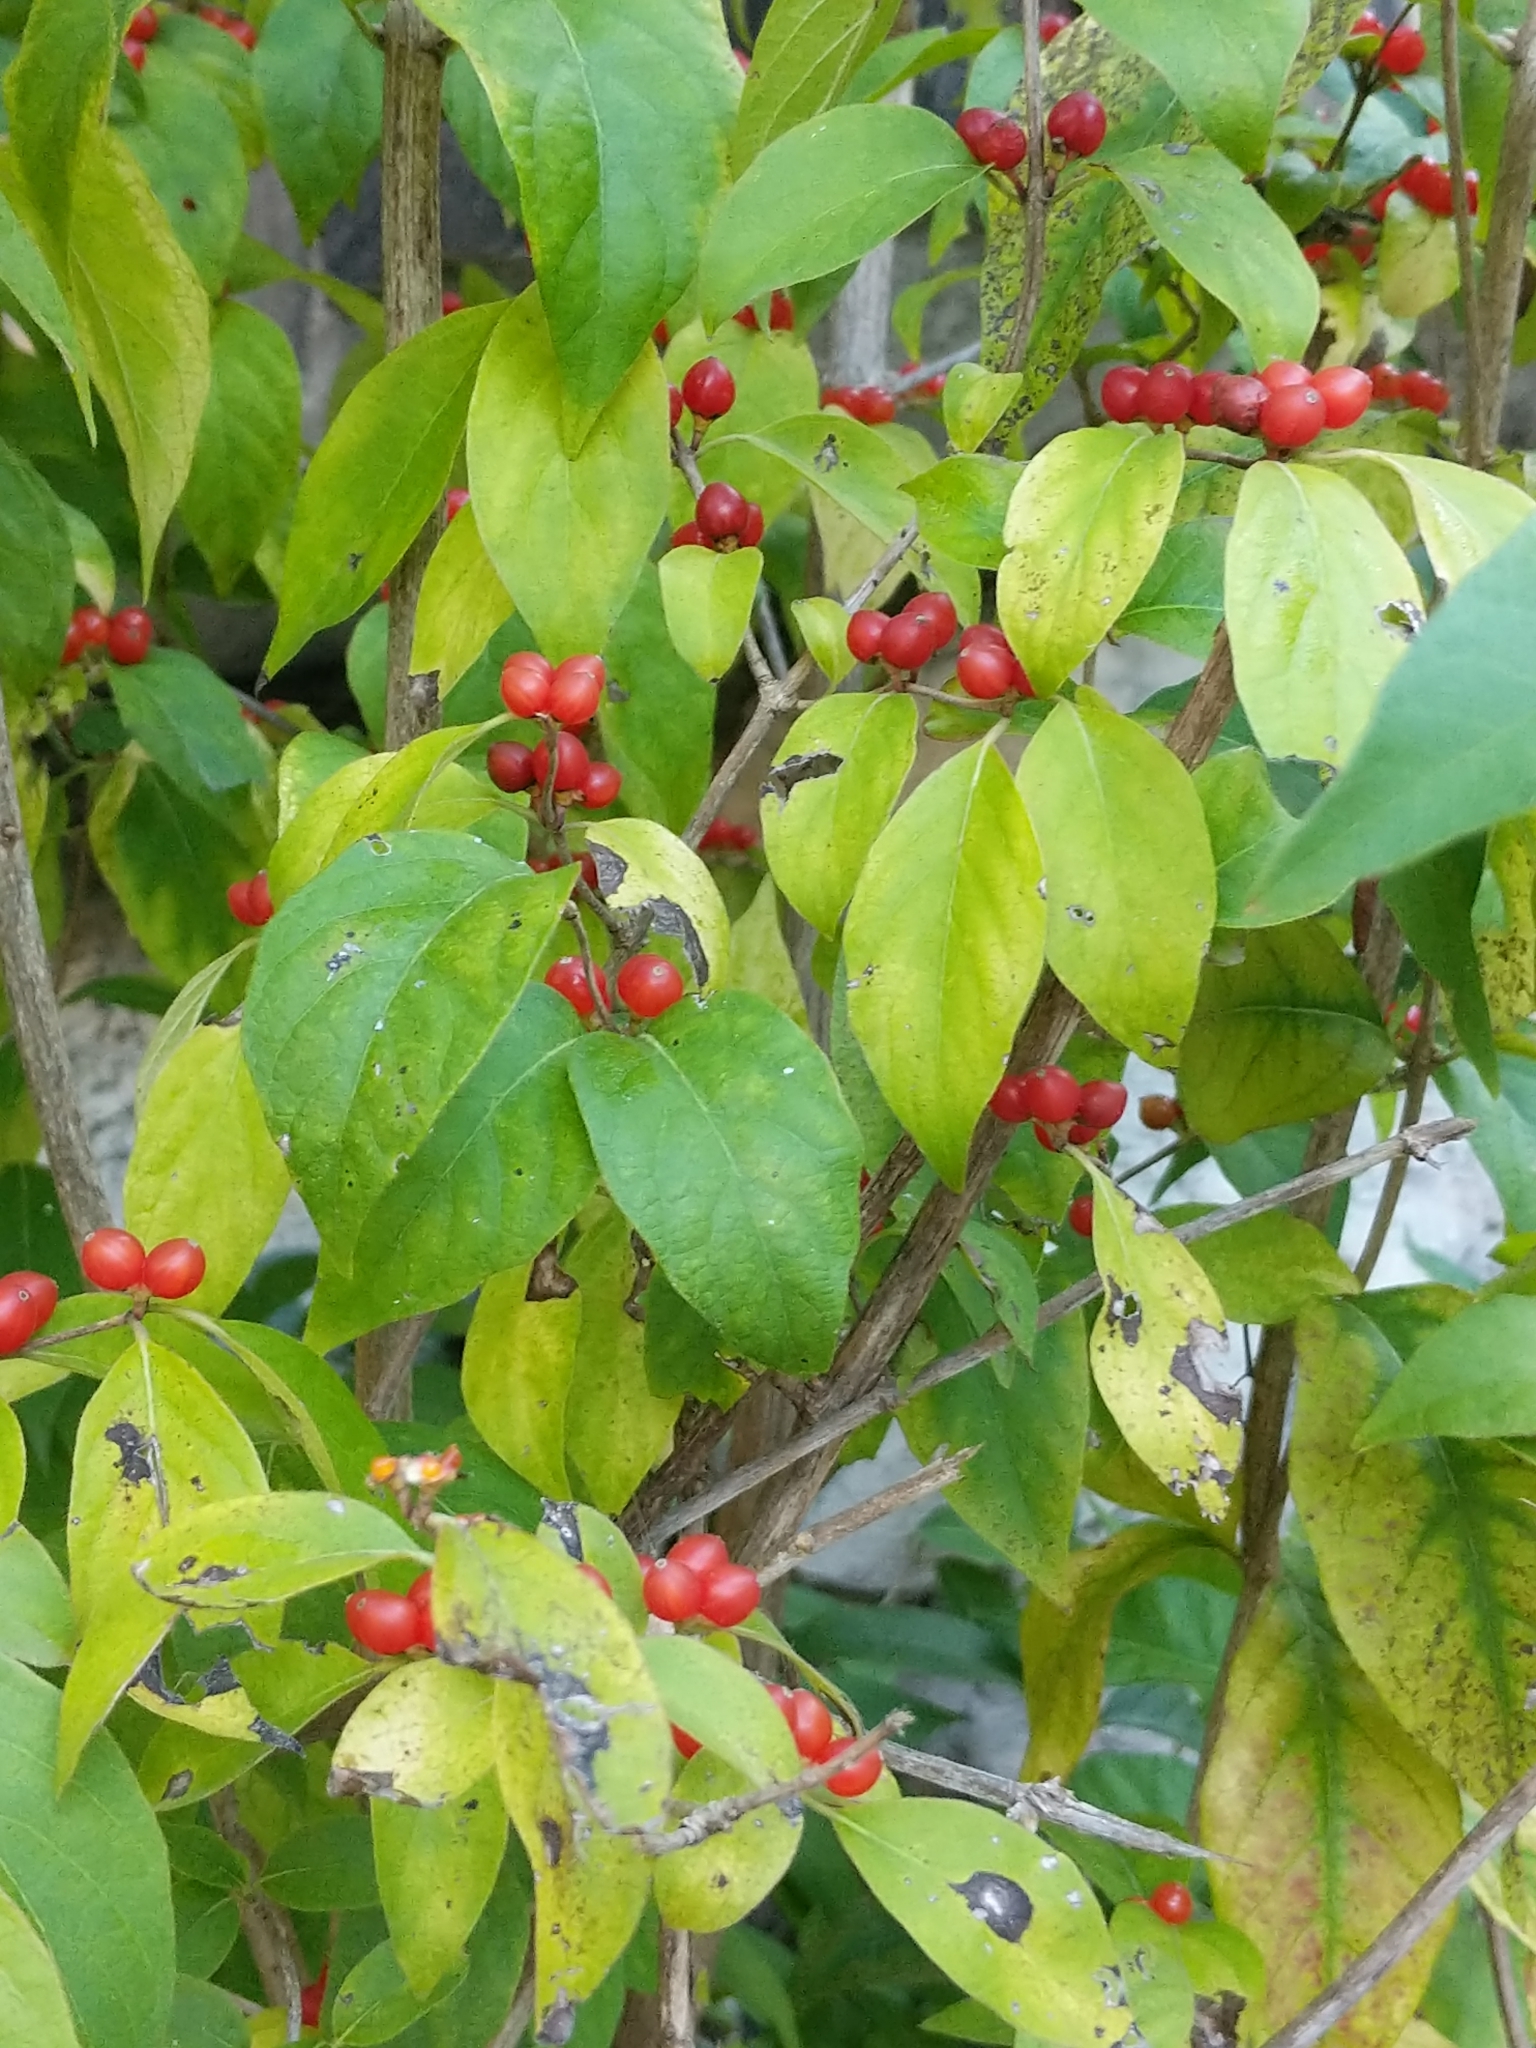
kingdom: Plantae
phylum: Tracheophyta
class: Magnoliopsida
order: Dipsacales
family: Caprifoliaceae
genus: Lonicera
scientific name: Lonicera maackii
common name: Amur honeysuckle
